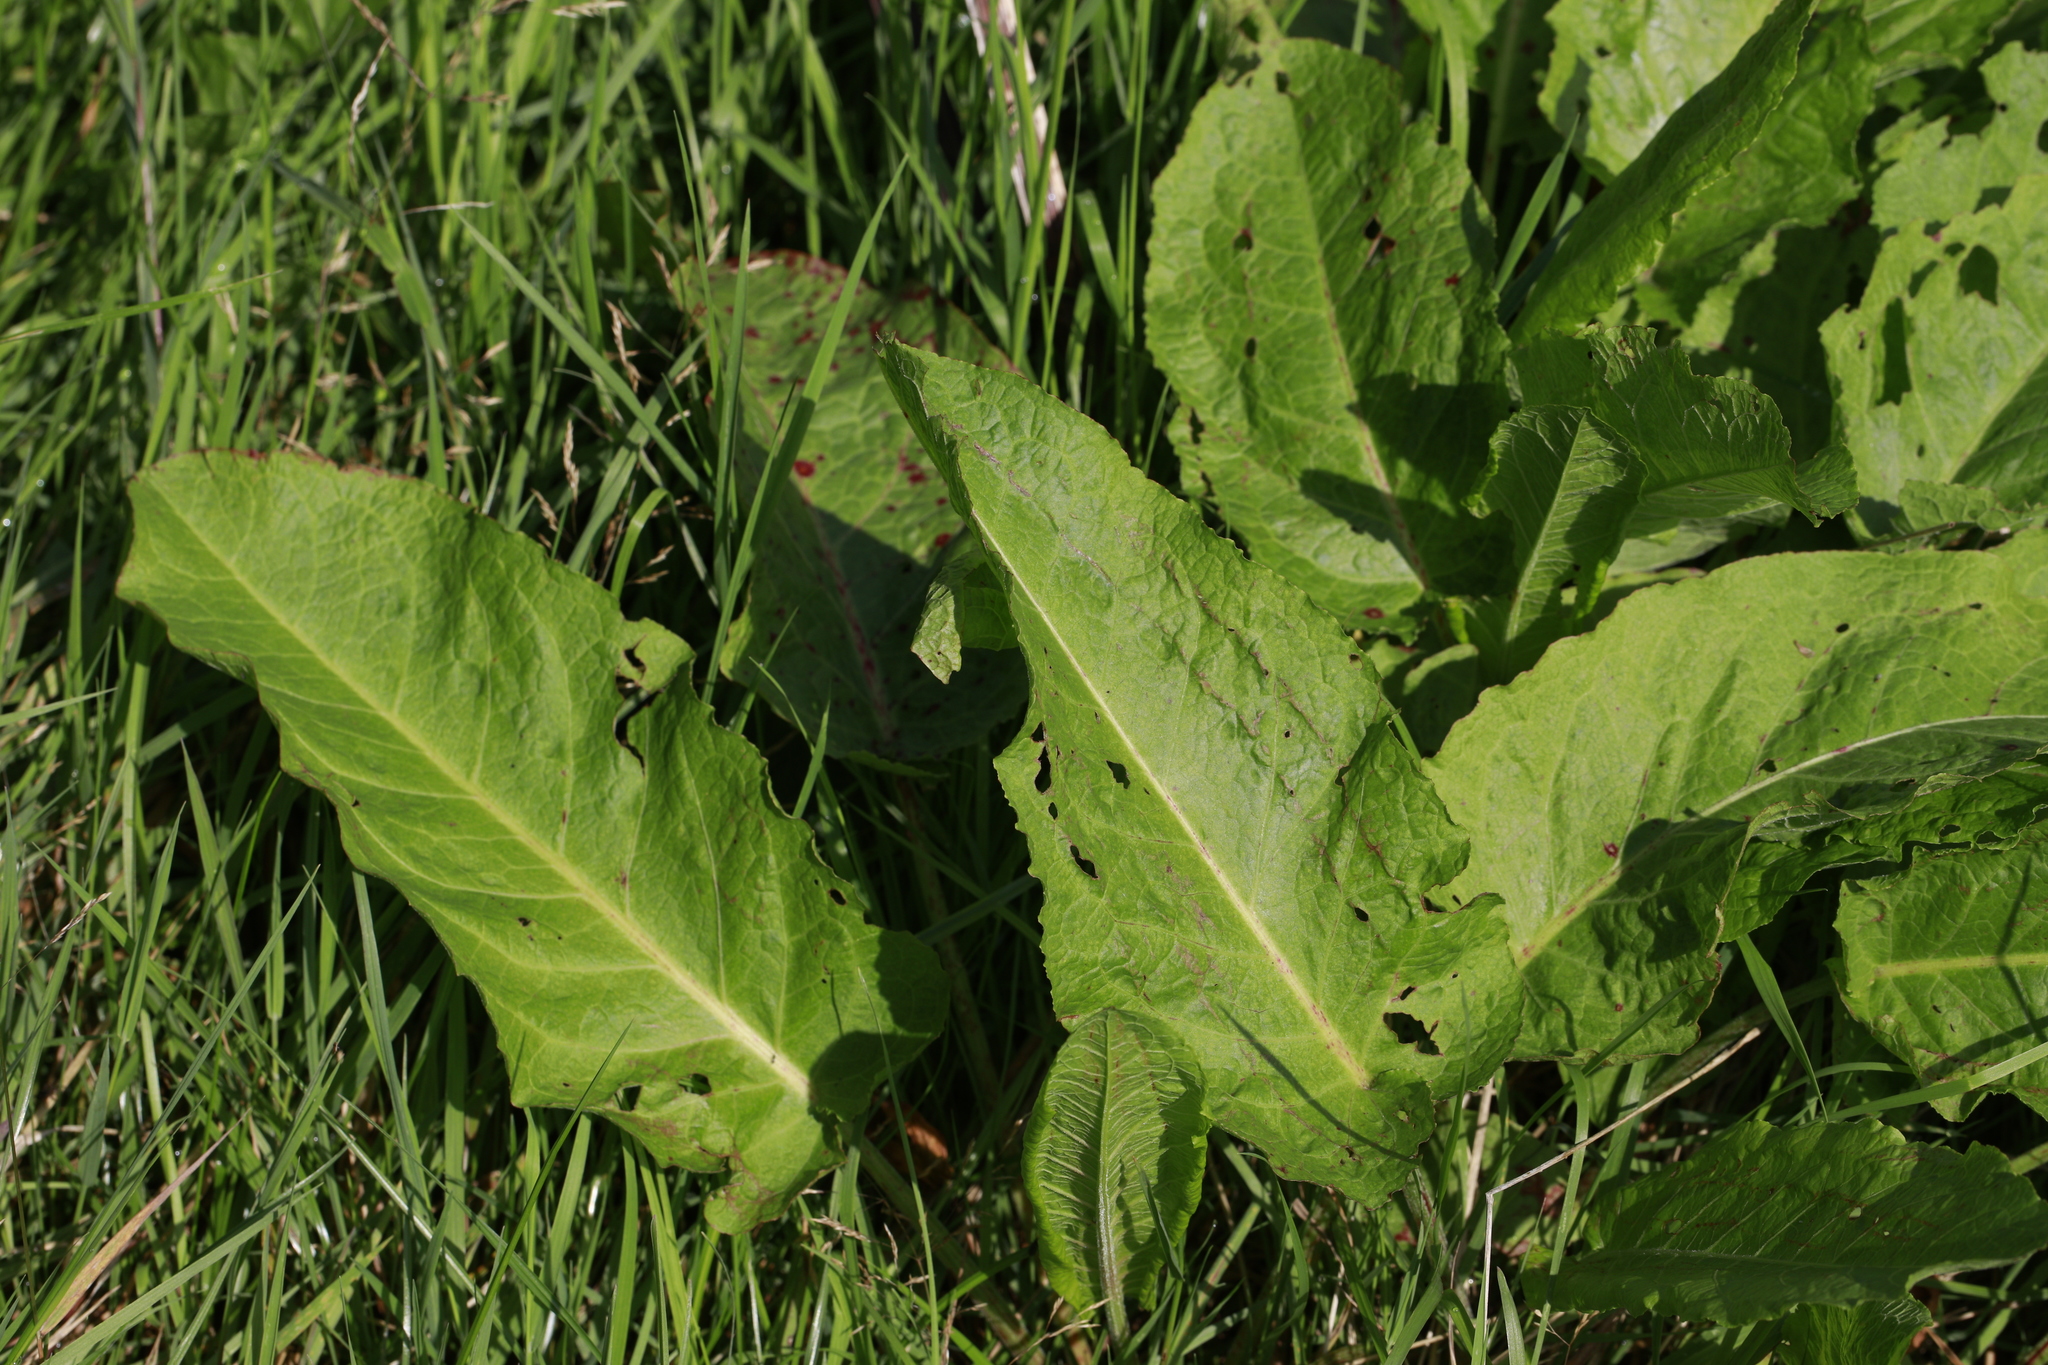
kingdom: Plantae
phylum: Tracheophyta
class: Magnoliopsida
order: Caryophyllales
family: Polygonaceae
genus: Rumex
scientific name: Rumex obtusifolius
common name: Bitter dock
